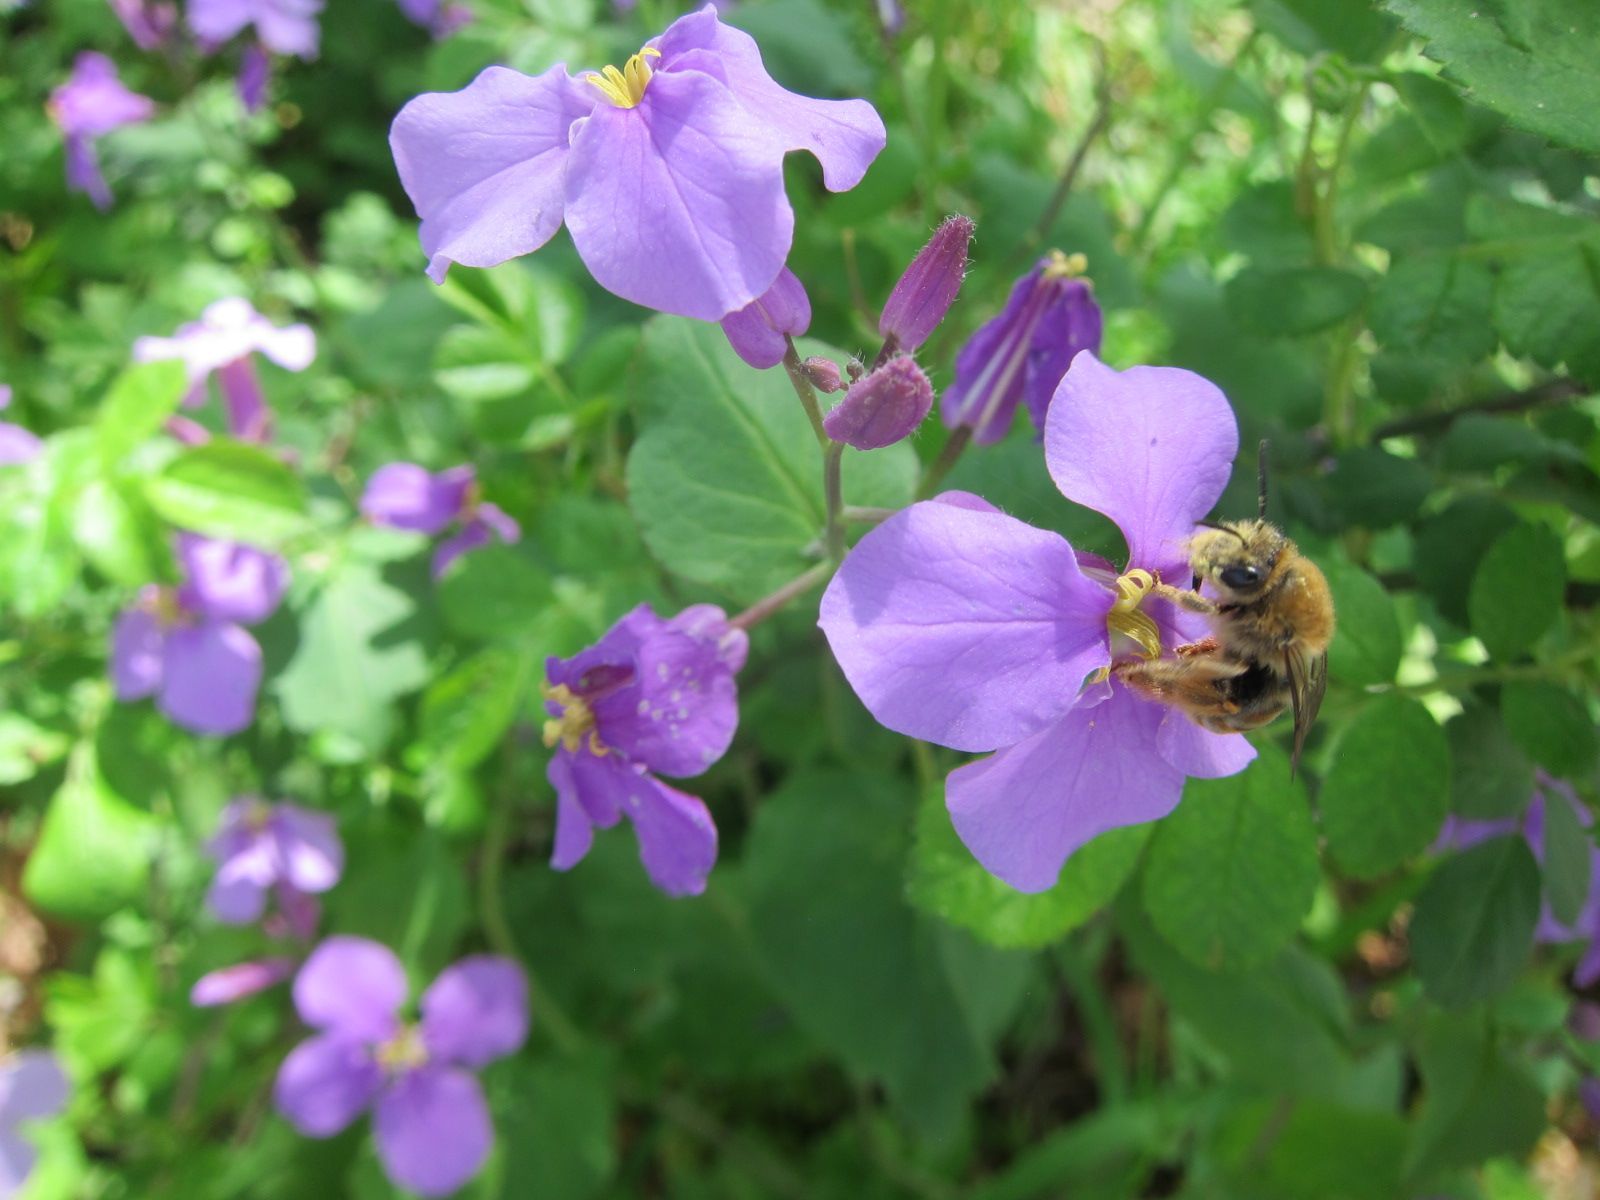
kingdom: Plantae
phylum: Tracheophyta
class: Magnoliopsida
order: Brassicales
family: Brassicaceae
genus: Orychophragmus
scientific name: Orychophragmus violaceus
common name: Mustard
